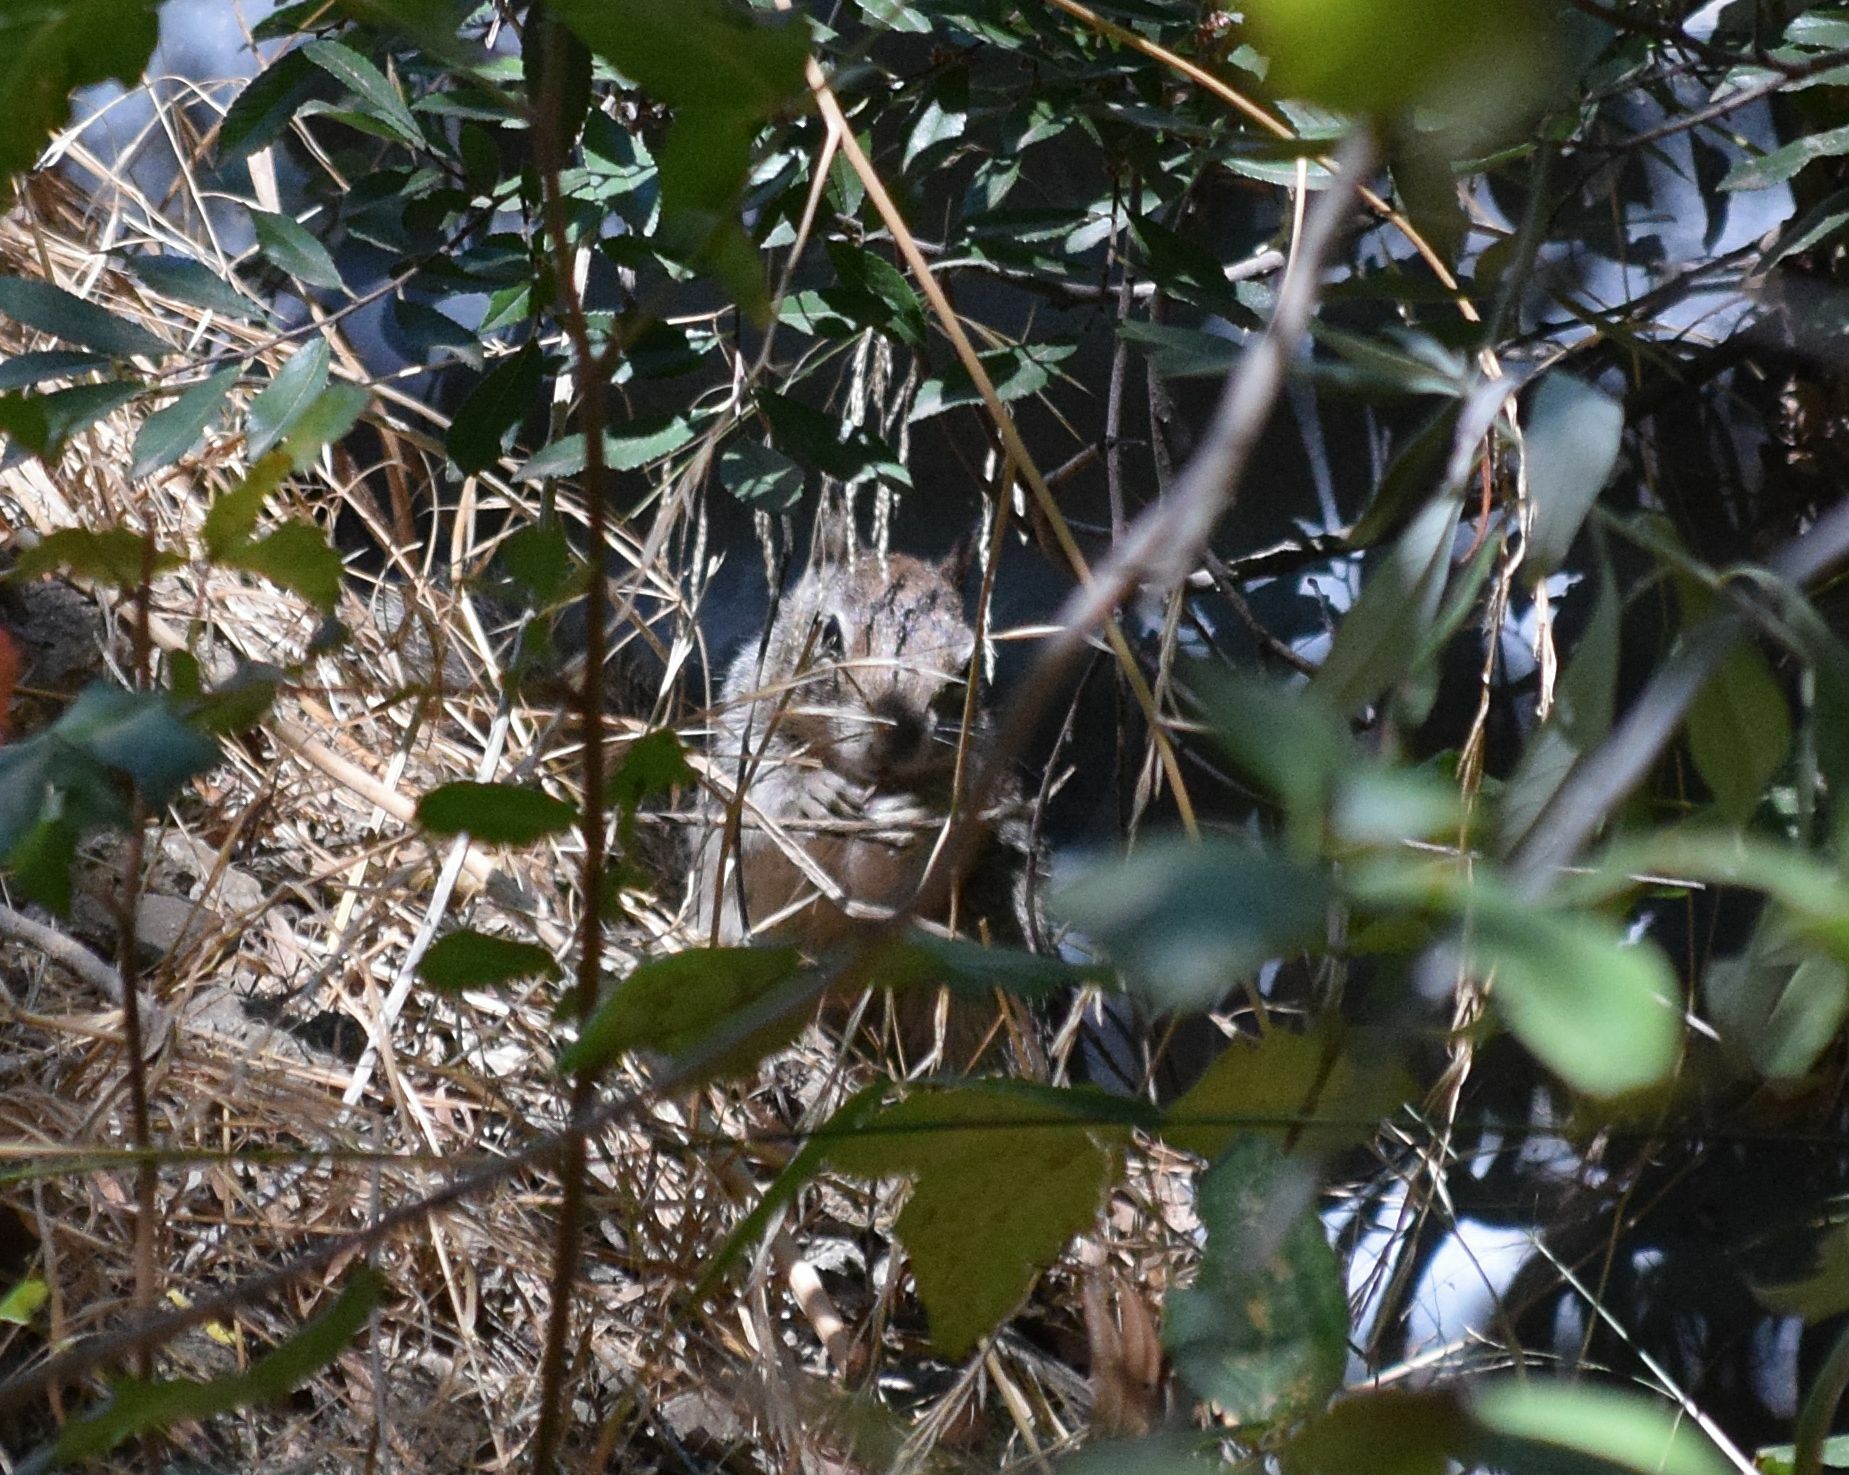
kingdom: Animalia
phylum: Chordata
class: Mammalia
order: Rodentia
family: Sciuridae
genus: Otospermophilus
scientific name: Otospermophilus beecheyi
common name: California ground squirrel
